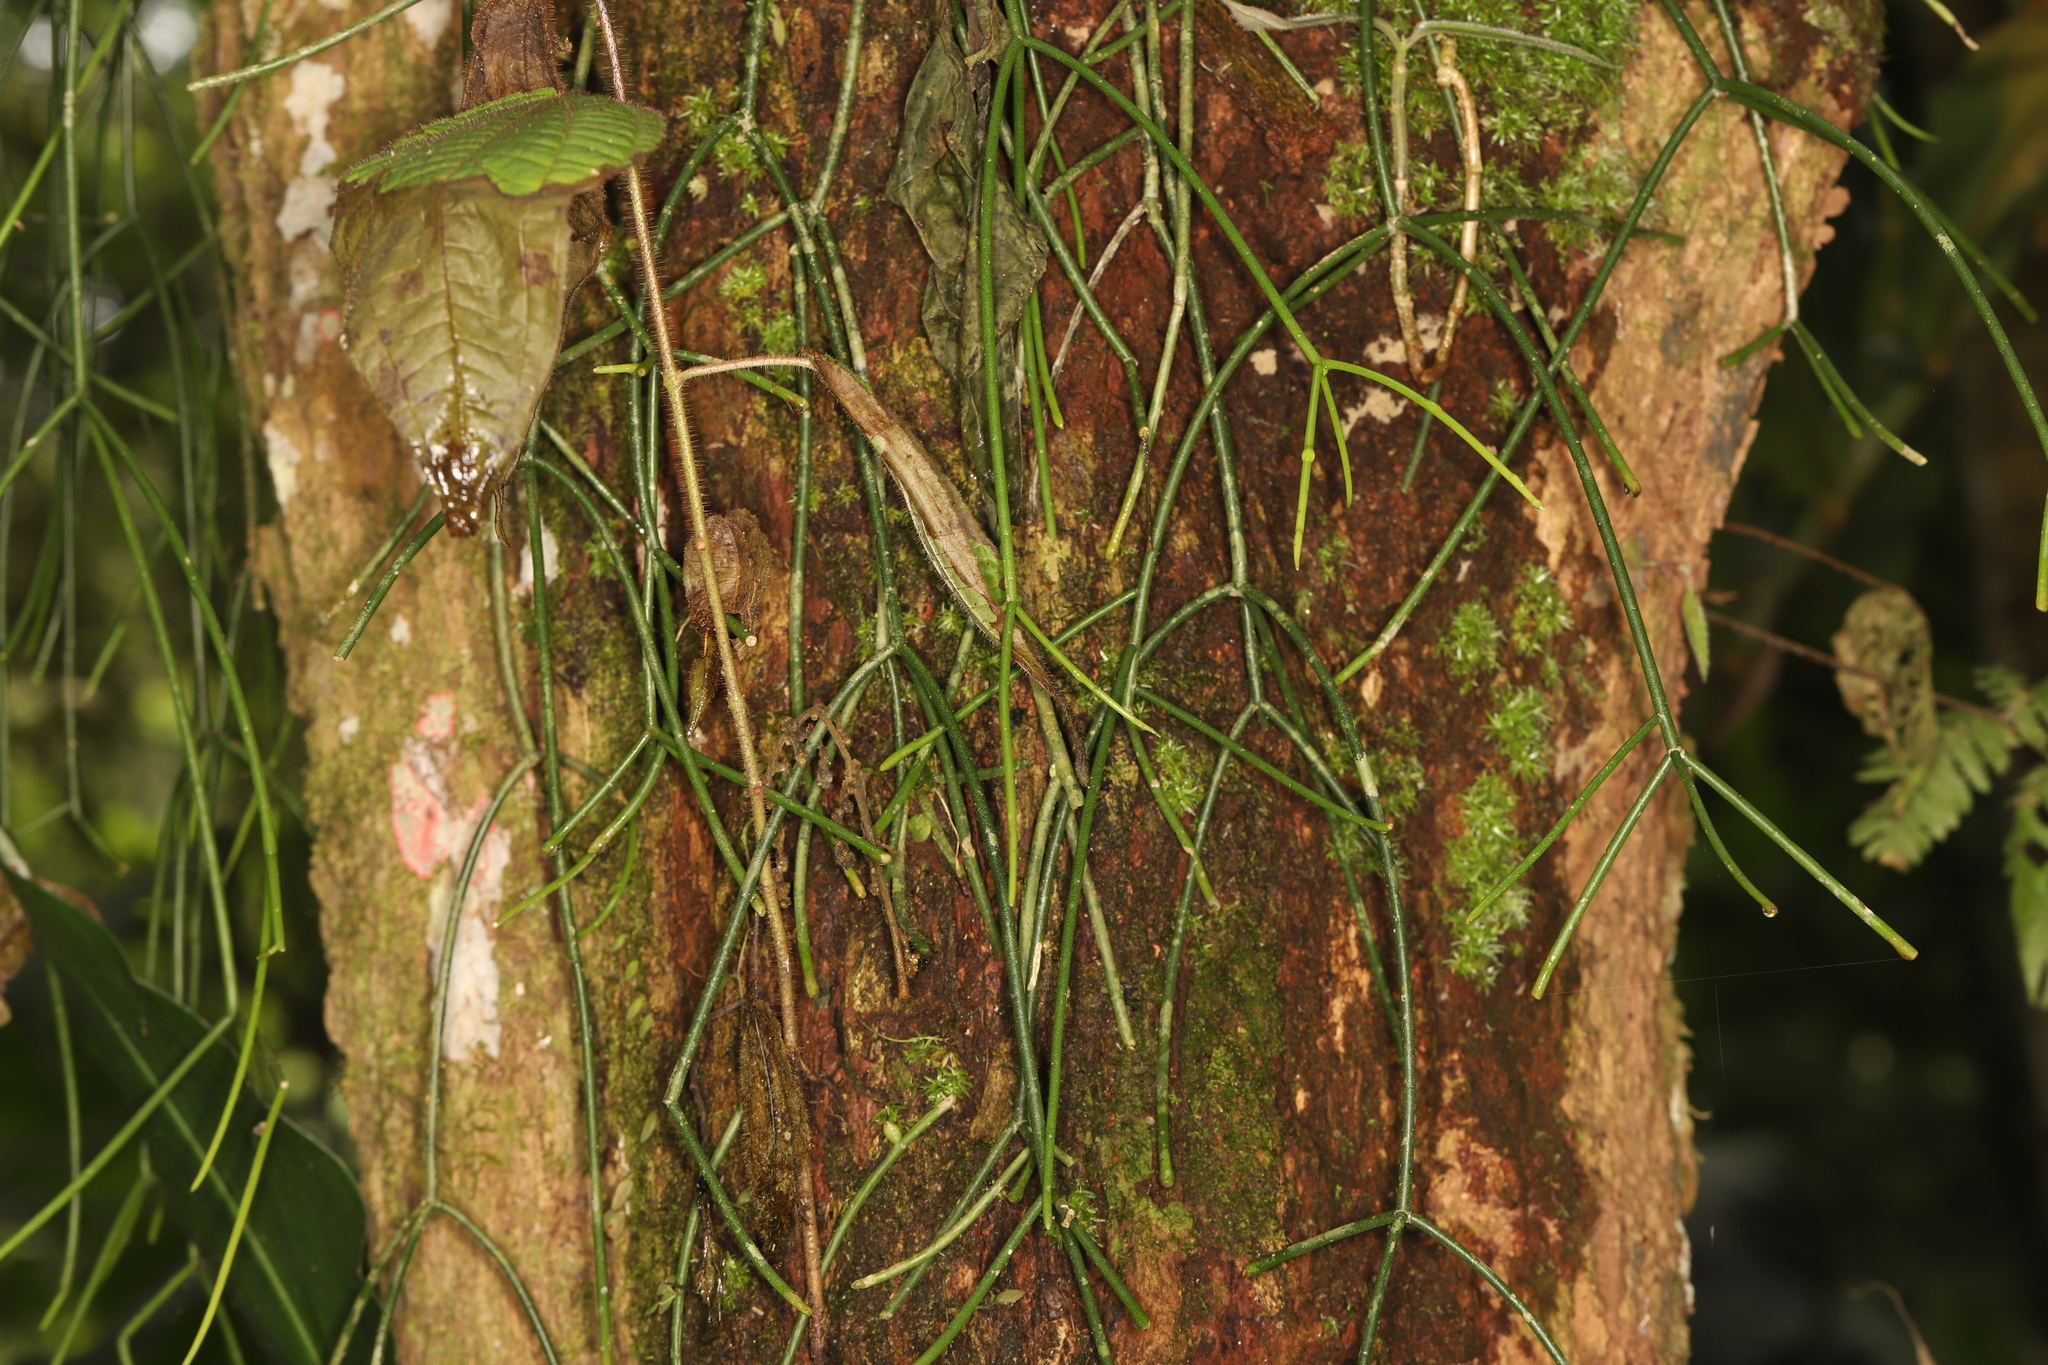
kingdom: Plantae
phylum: Tracheophyta
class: Magnoliopsida
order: Caryophyllales
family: Cactaceae
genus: Rhipsalis
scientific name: Rhipsalis baccifera
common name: Mistletoe cactus
